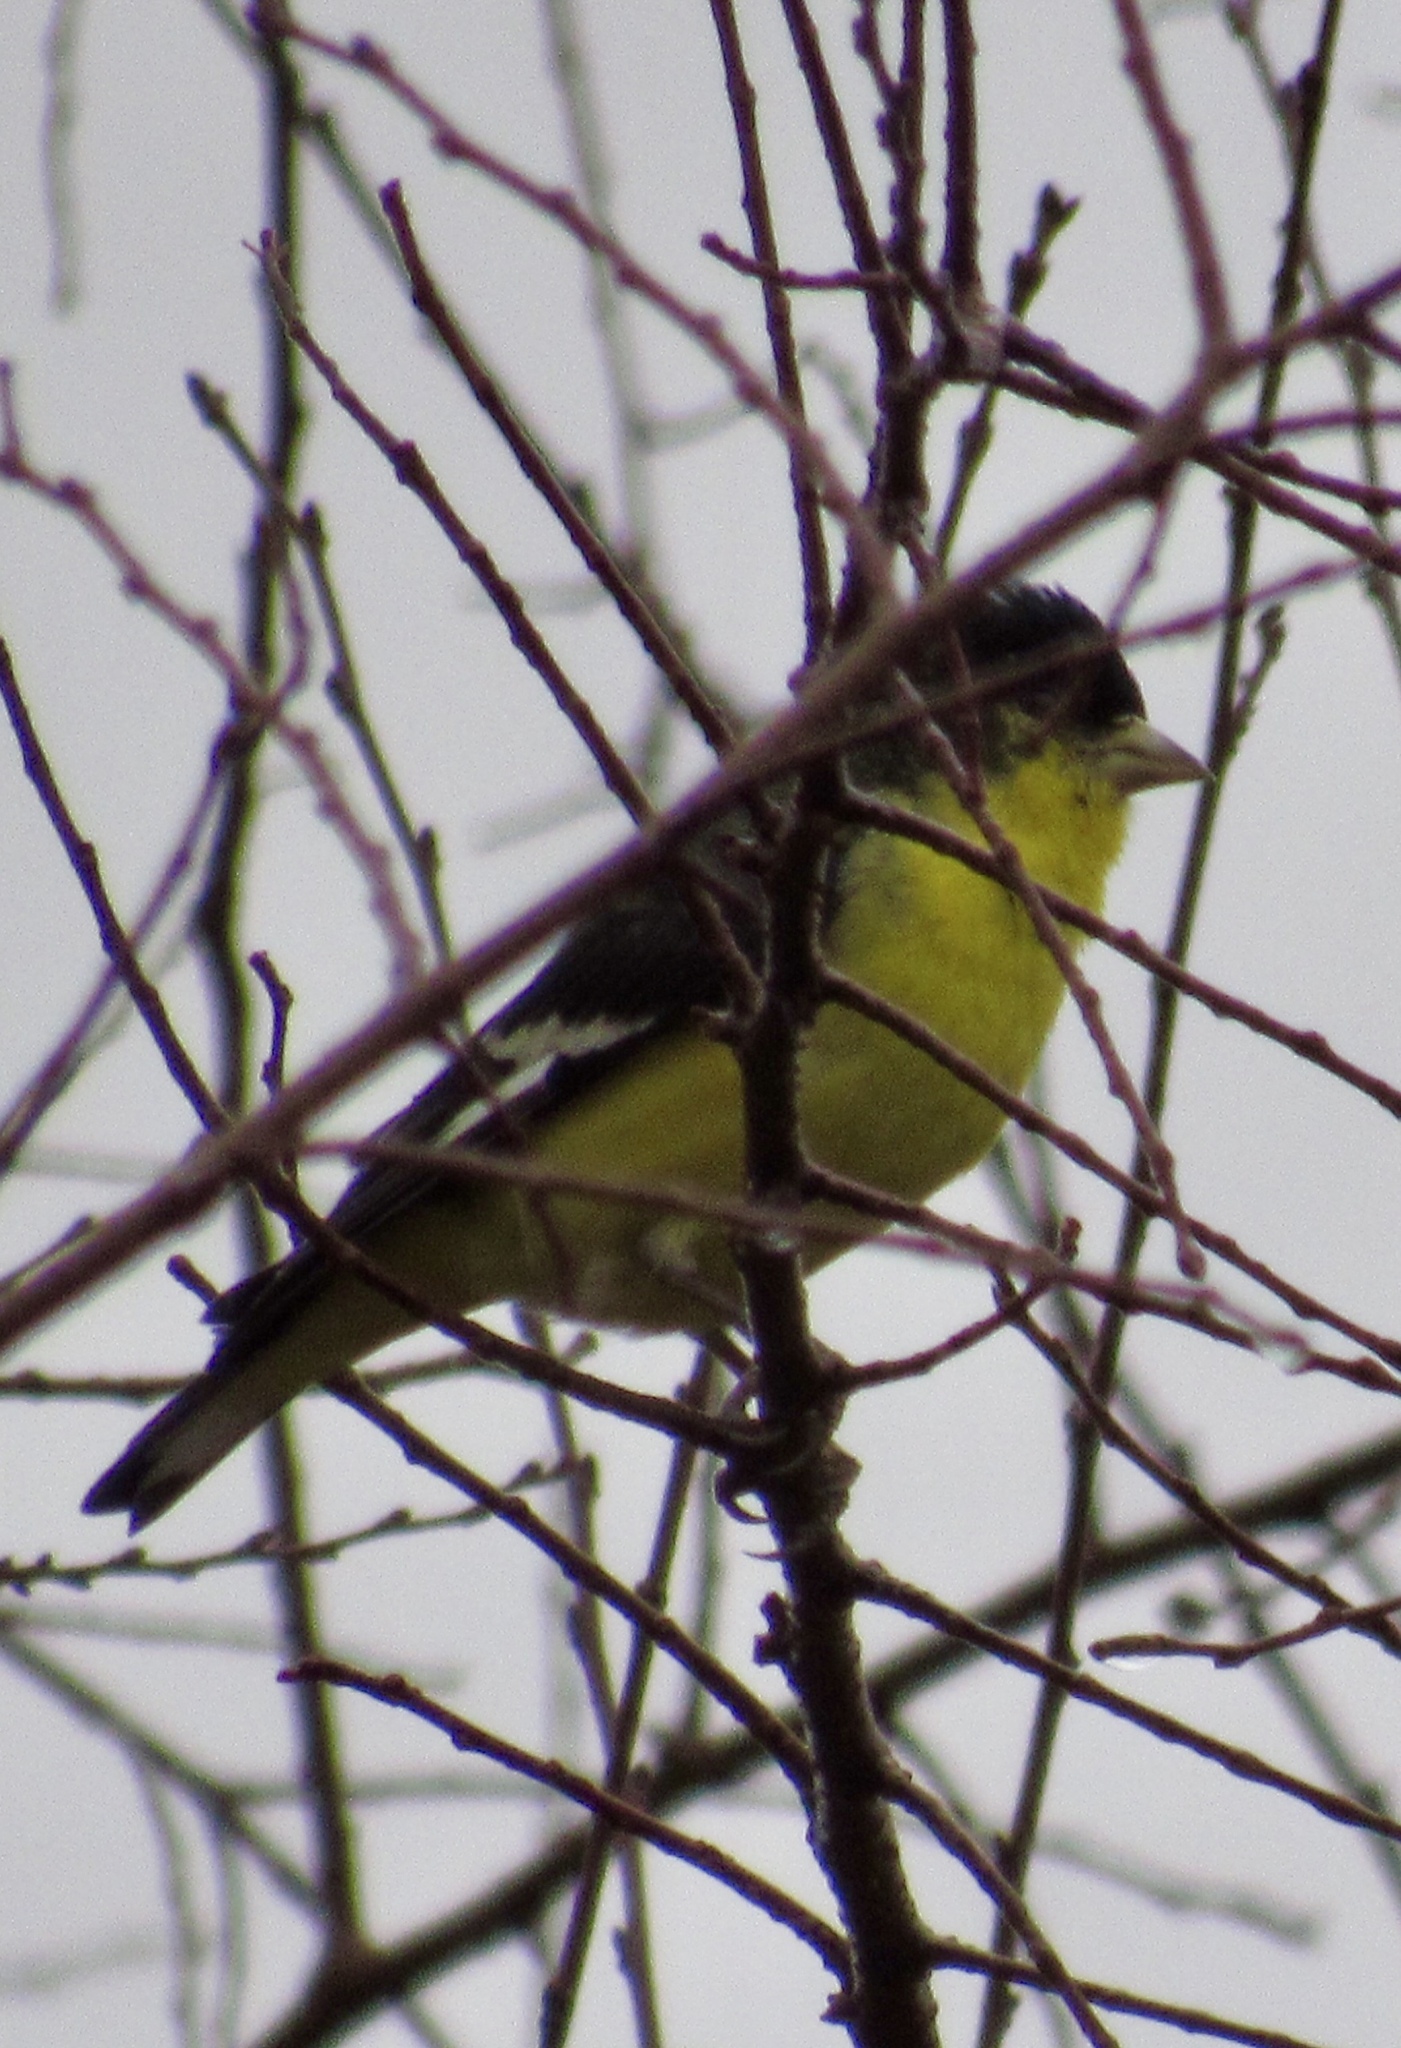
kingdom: Animalia
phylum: Chordata
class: Aves
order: Passeriformes
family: Fringillidae
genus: Spinus
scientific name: Spinus psaltria
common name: Lesser goldfinch
